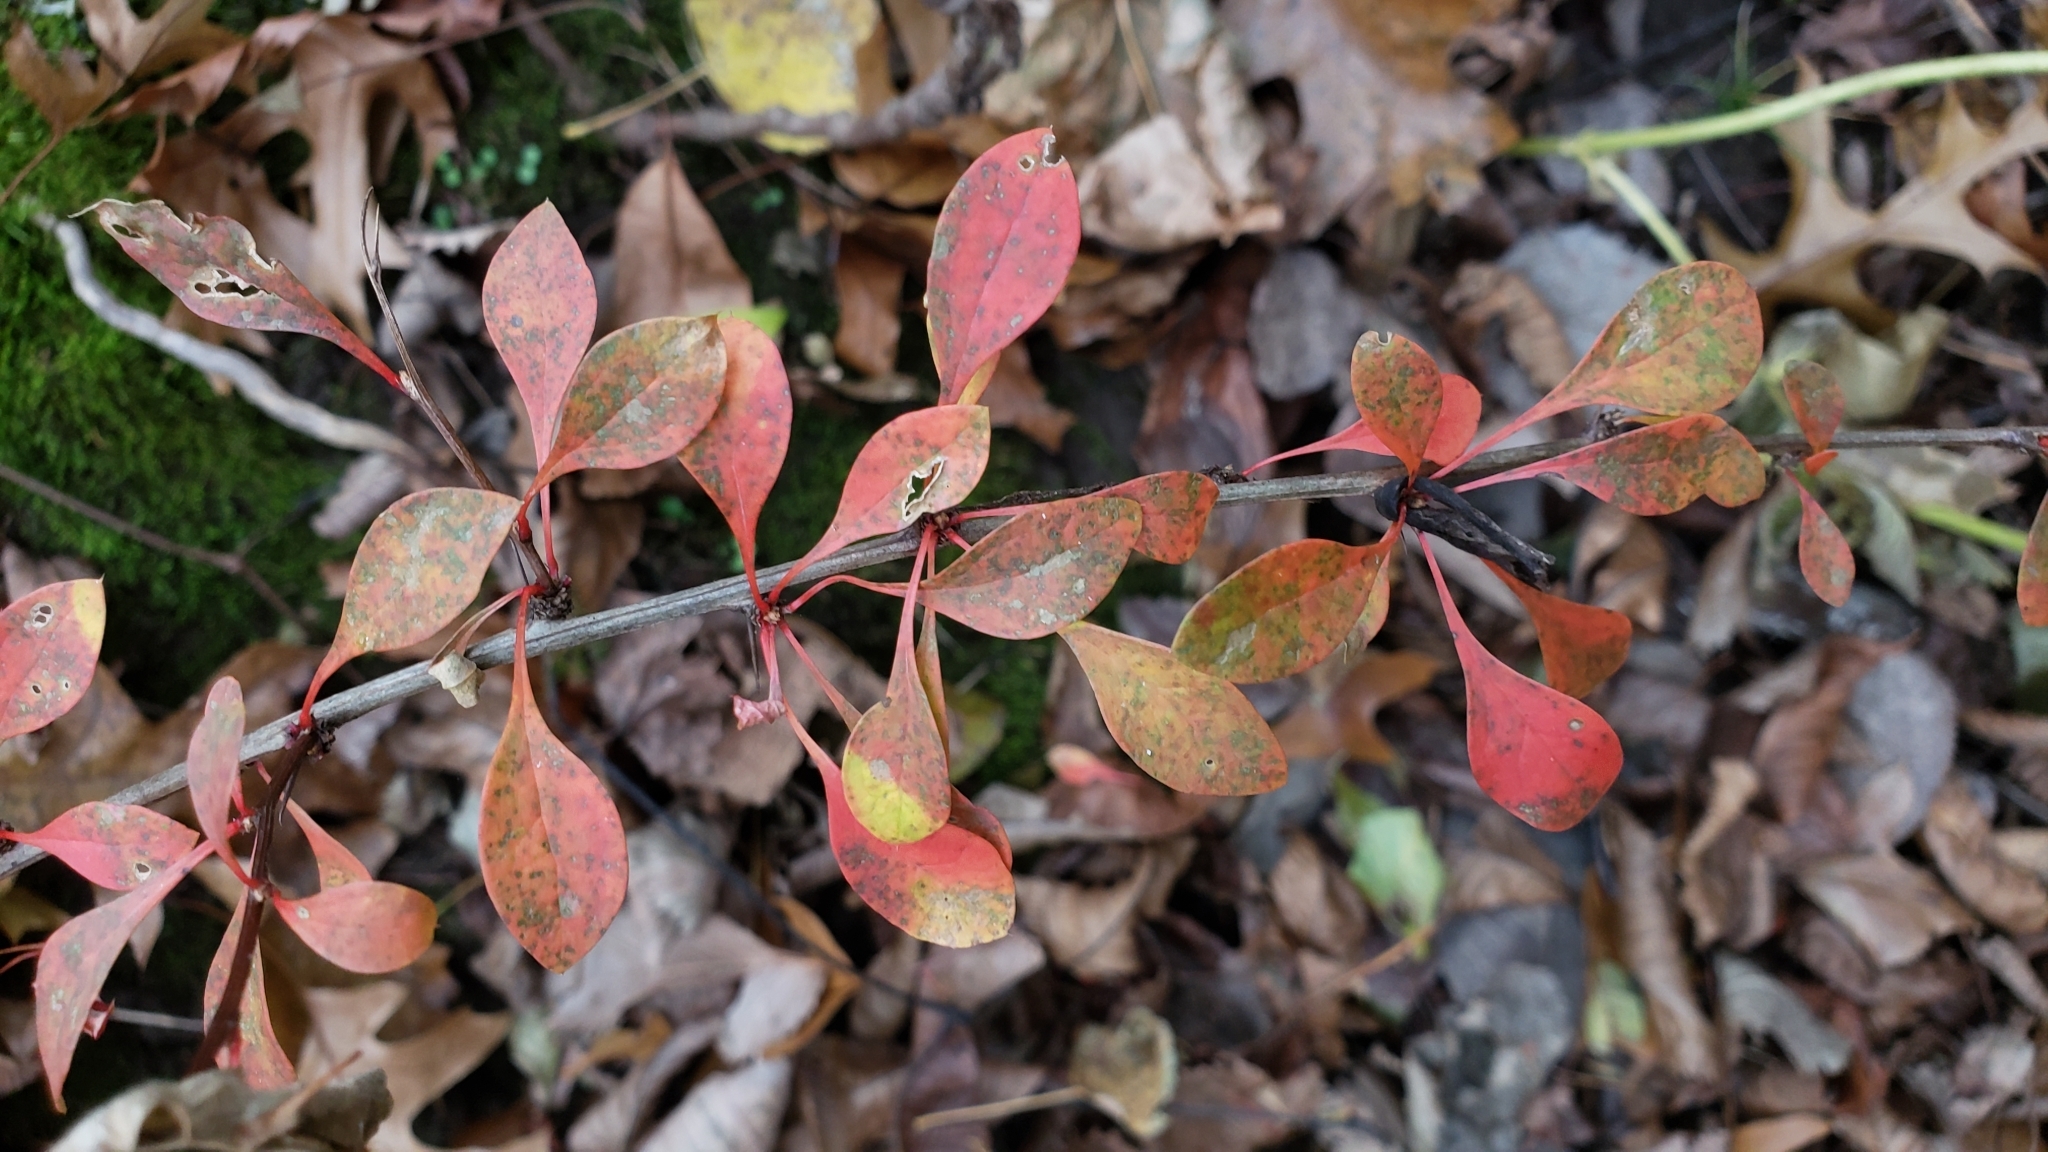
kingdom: Plantae
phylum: Tracheophyta
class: Magnoliopsida
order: Ranunculales
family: Berberidaceae
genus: Berberis
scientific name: Berberis thunbergii
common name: Japanese barberry
